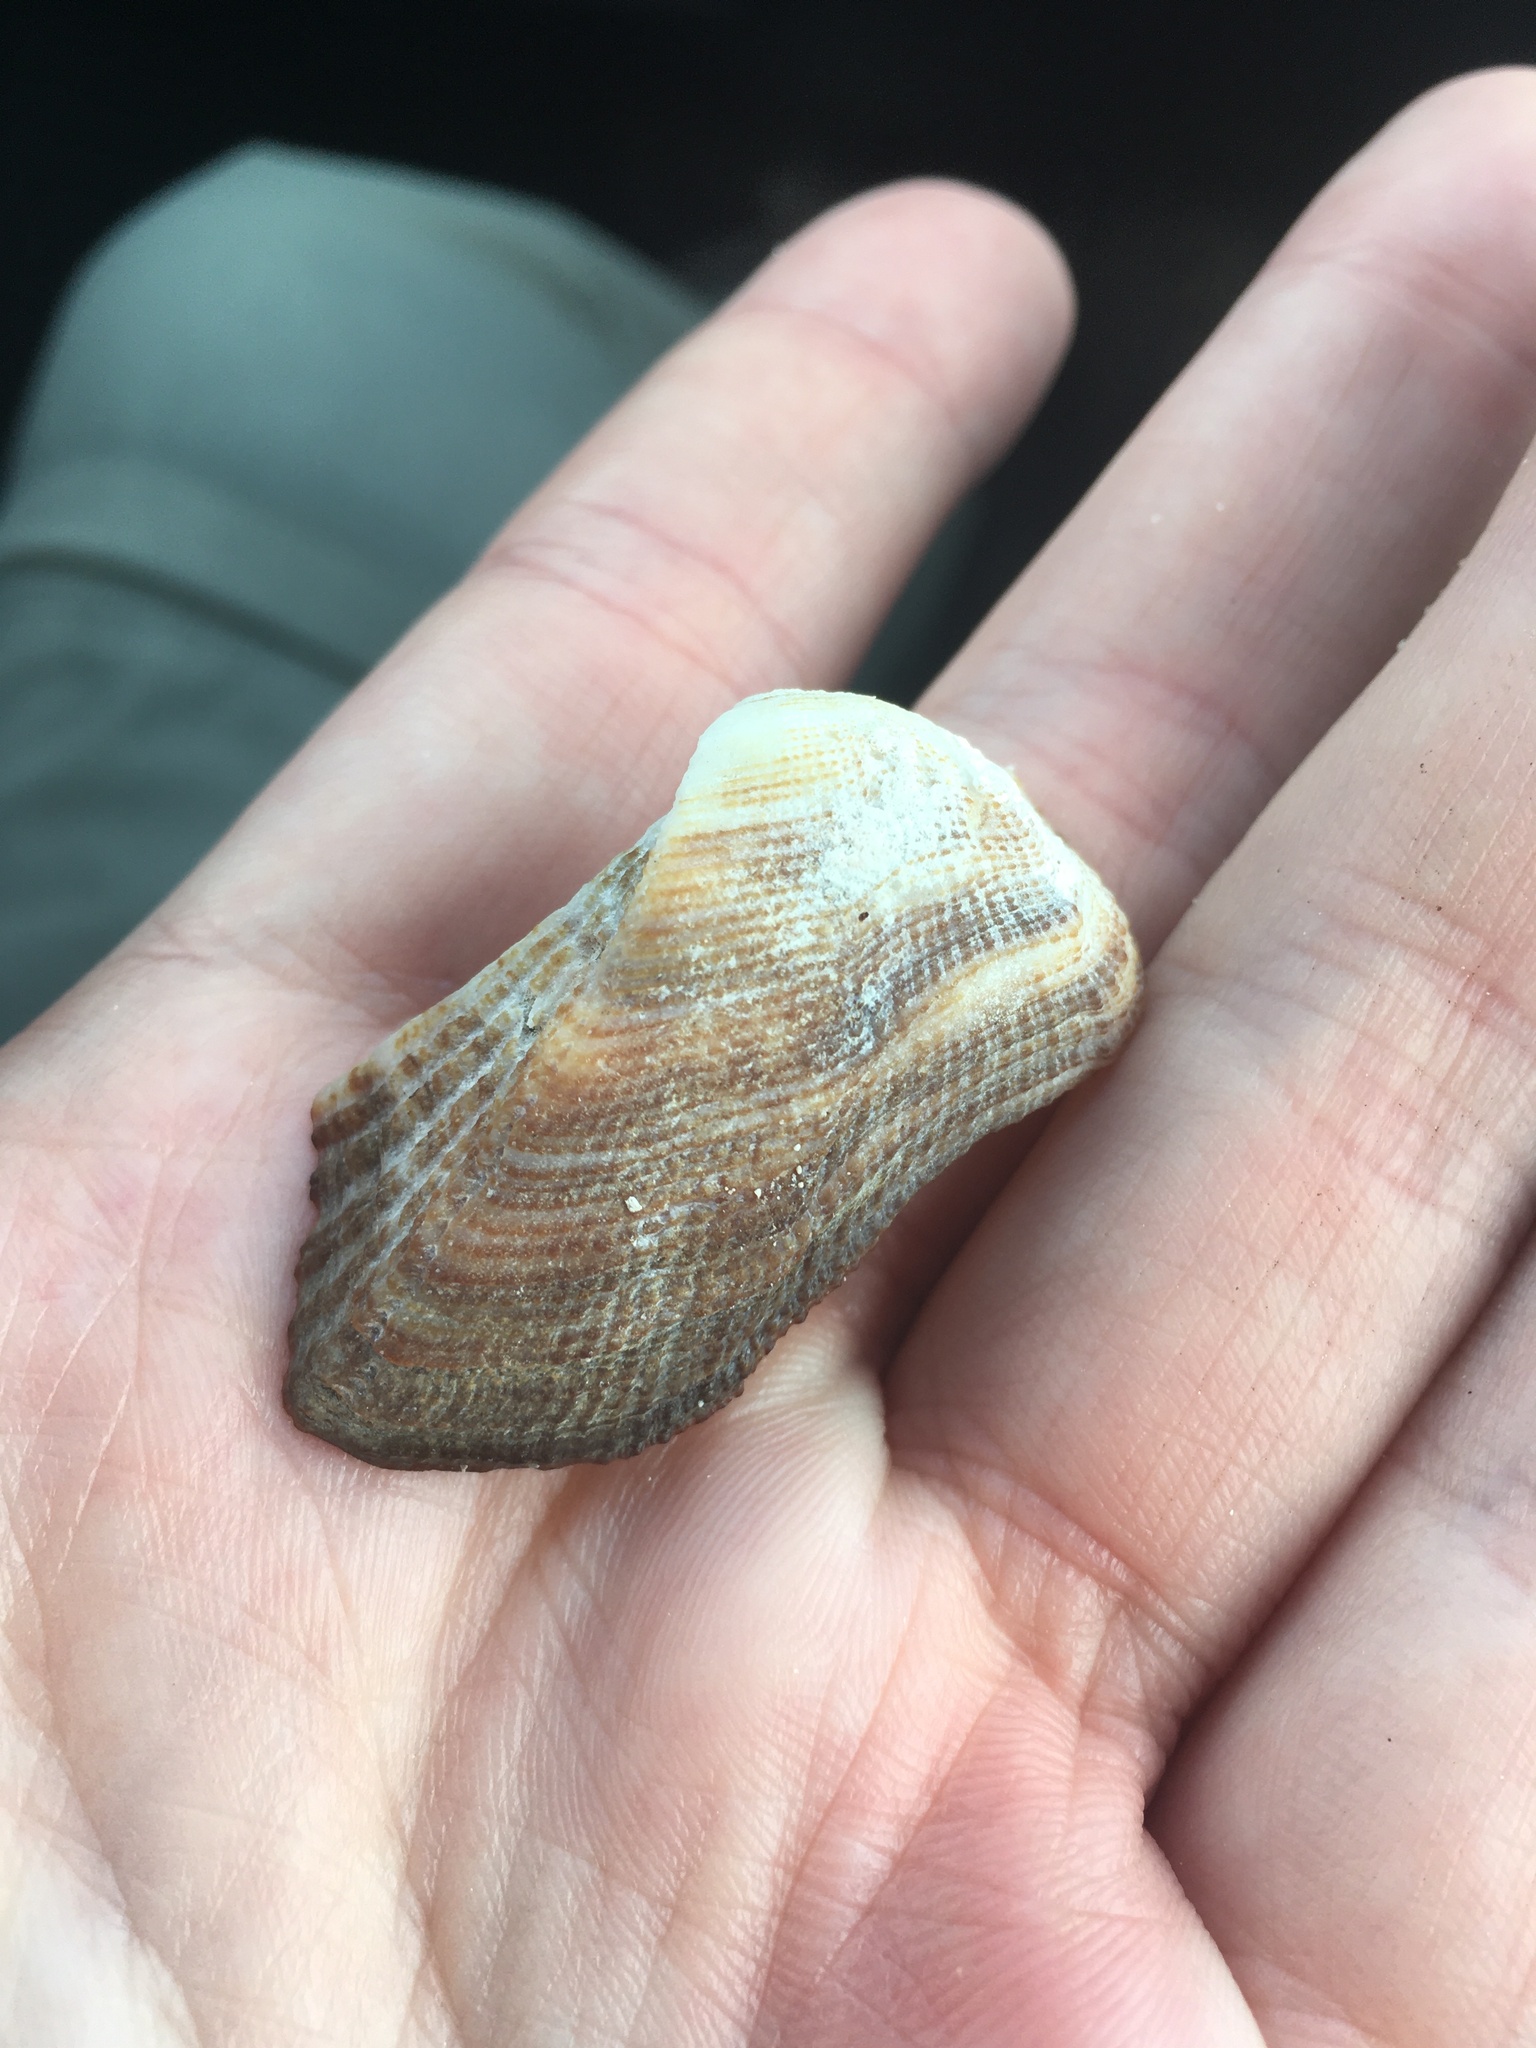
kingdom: Animalia
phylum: Mollusca
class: Bivalvia
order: Arcida
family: Arcidae
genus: Lamarcka
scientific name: Lamarcka imbricata
